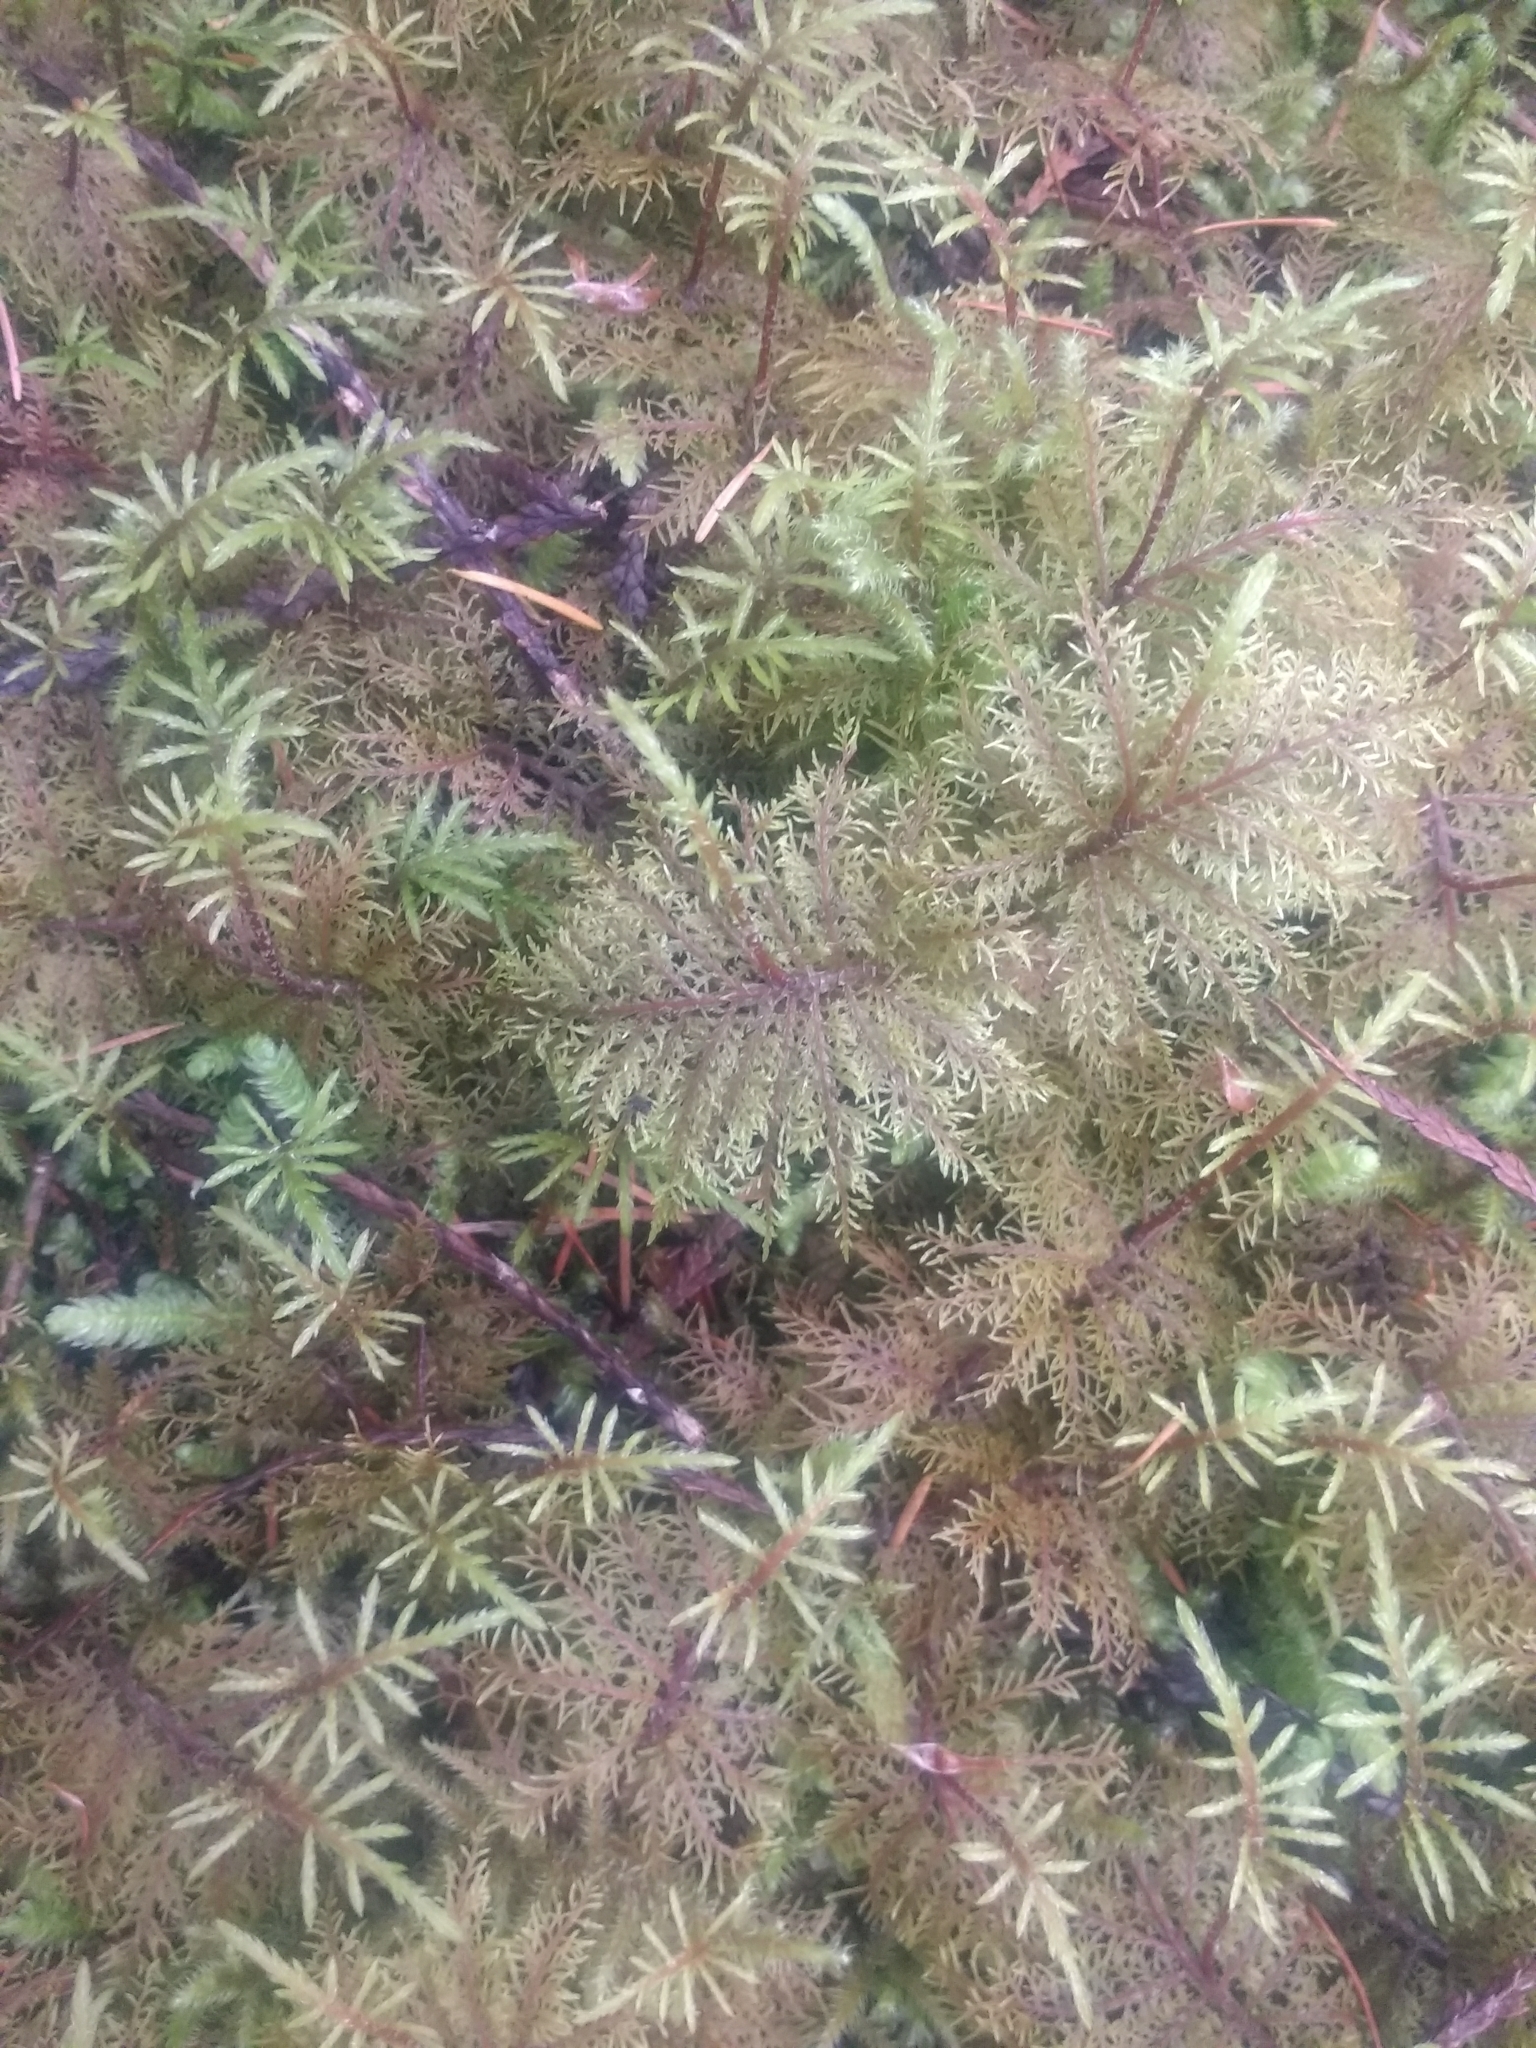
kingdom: Plantae
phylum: Bryophyta
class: Bryopsida
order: Hypnales
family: Hylocomiaceae
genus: Hylocomium
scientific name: Hylocomium splendens
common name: Stairstep moss
